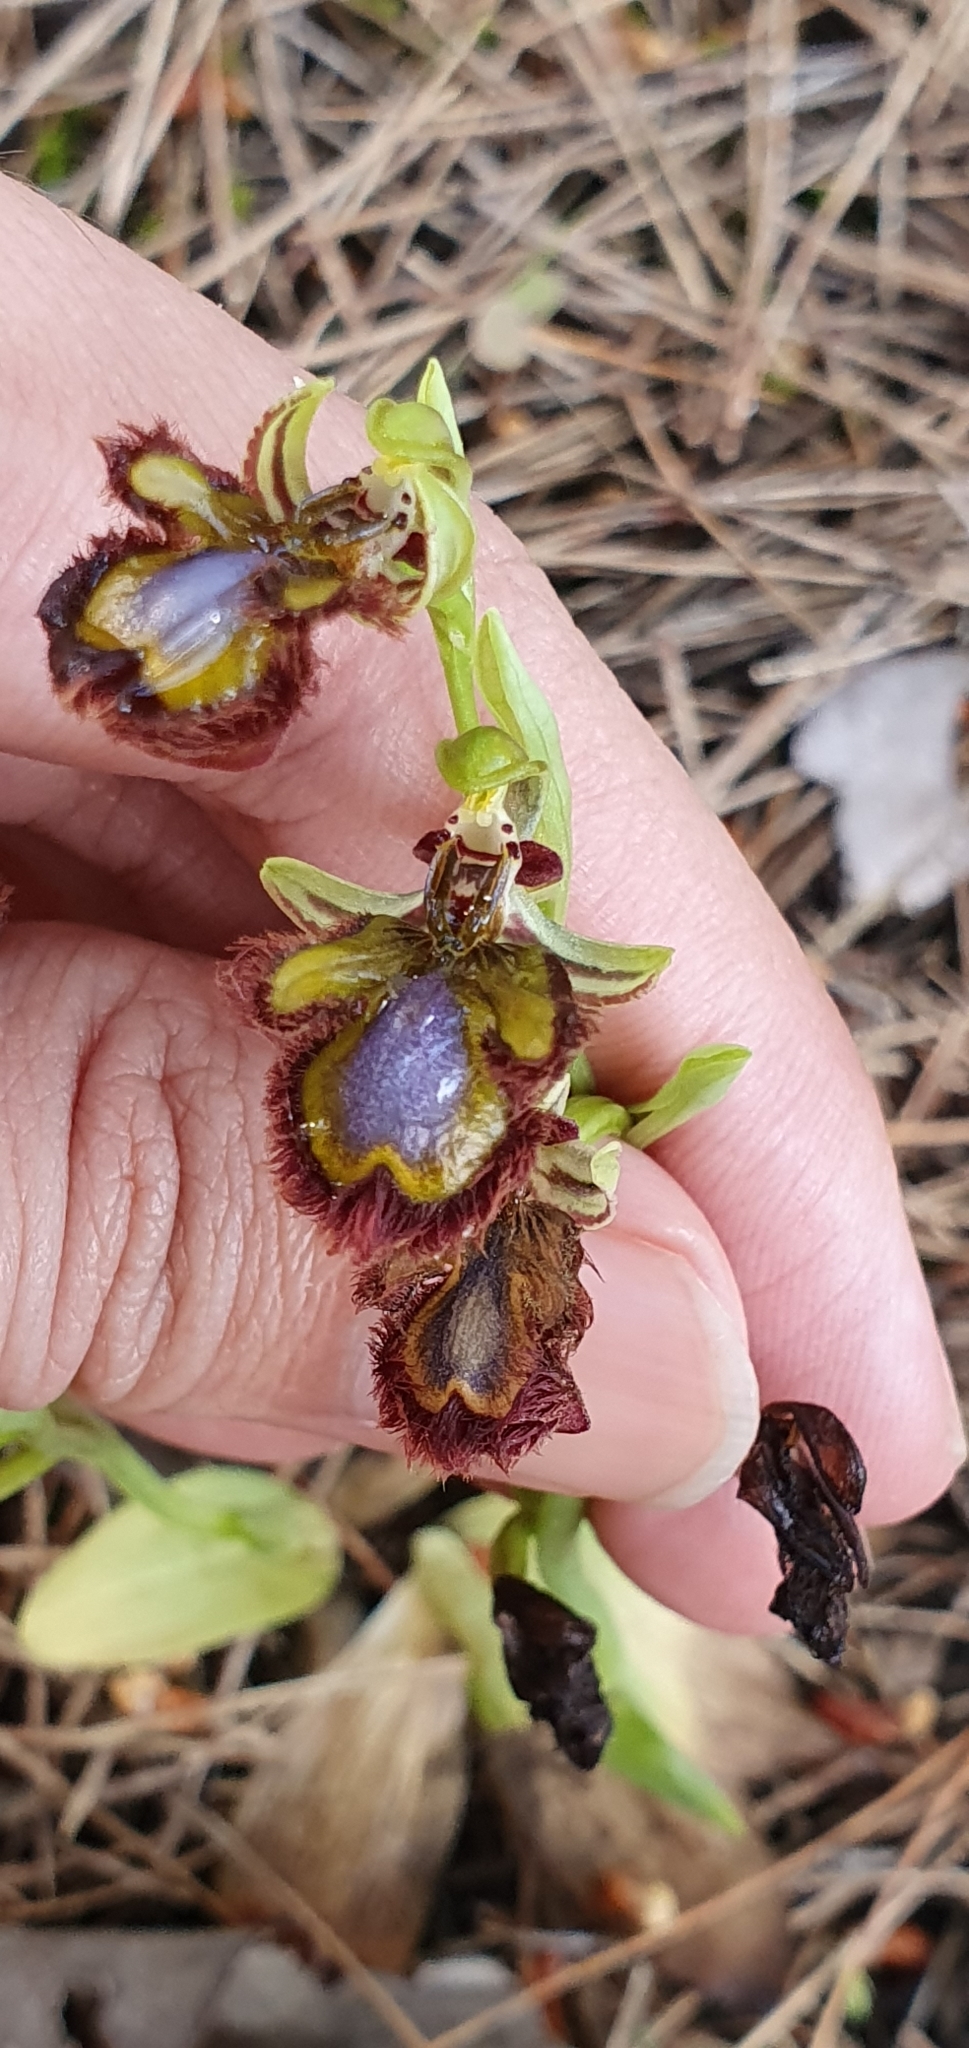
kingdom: Plantae
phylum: Tracheophyta
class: Liliopsida
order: Asparagales
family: Orchidaceae
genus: Ophrys
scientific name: Ophrys speculum
